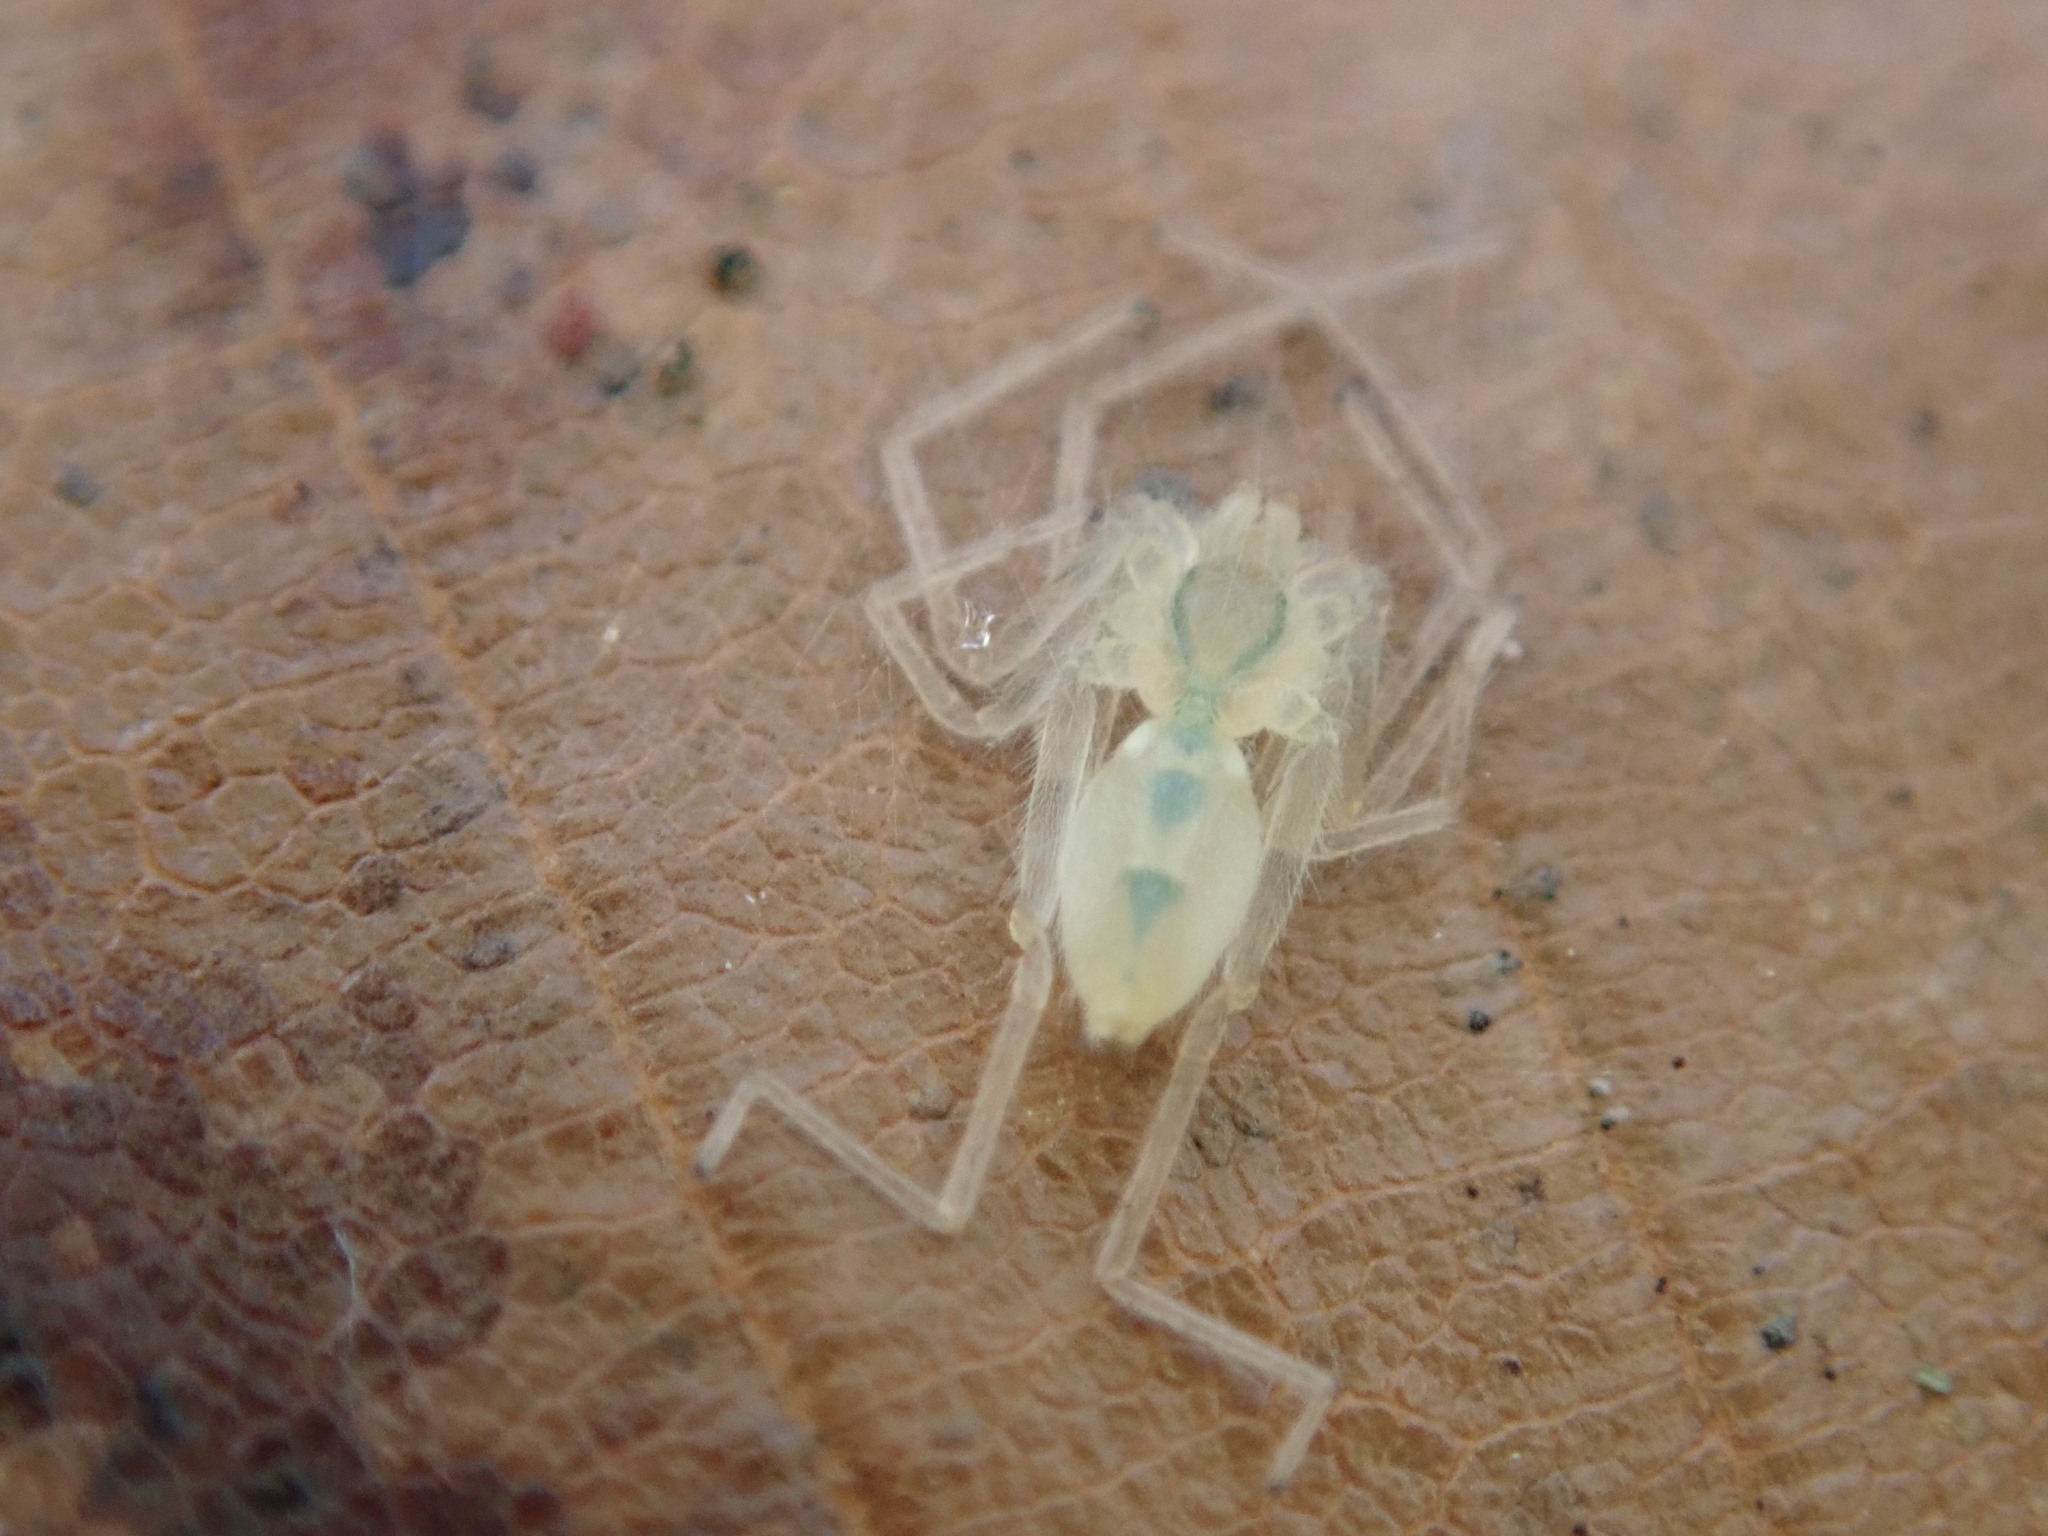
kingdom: Animalia
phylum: Arthropoda
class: Arachnida
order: Araneae
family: Anyphaenidae
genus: Wulfila
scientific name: Wulfila albens
